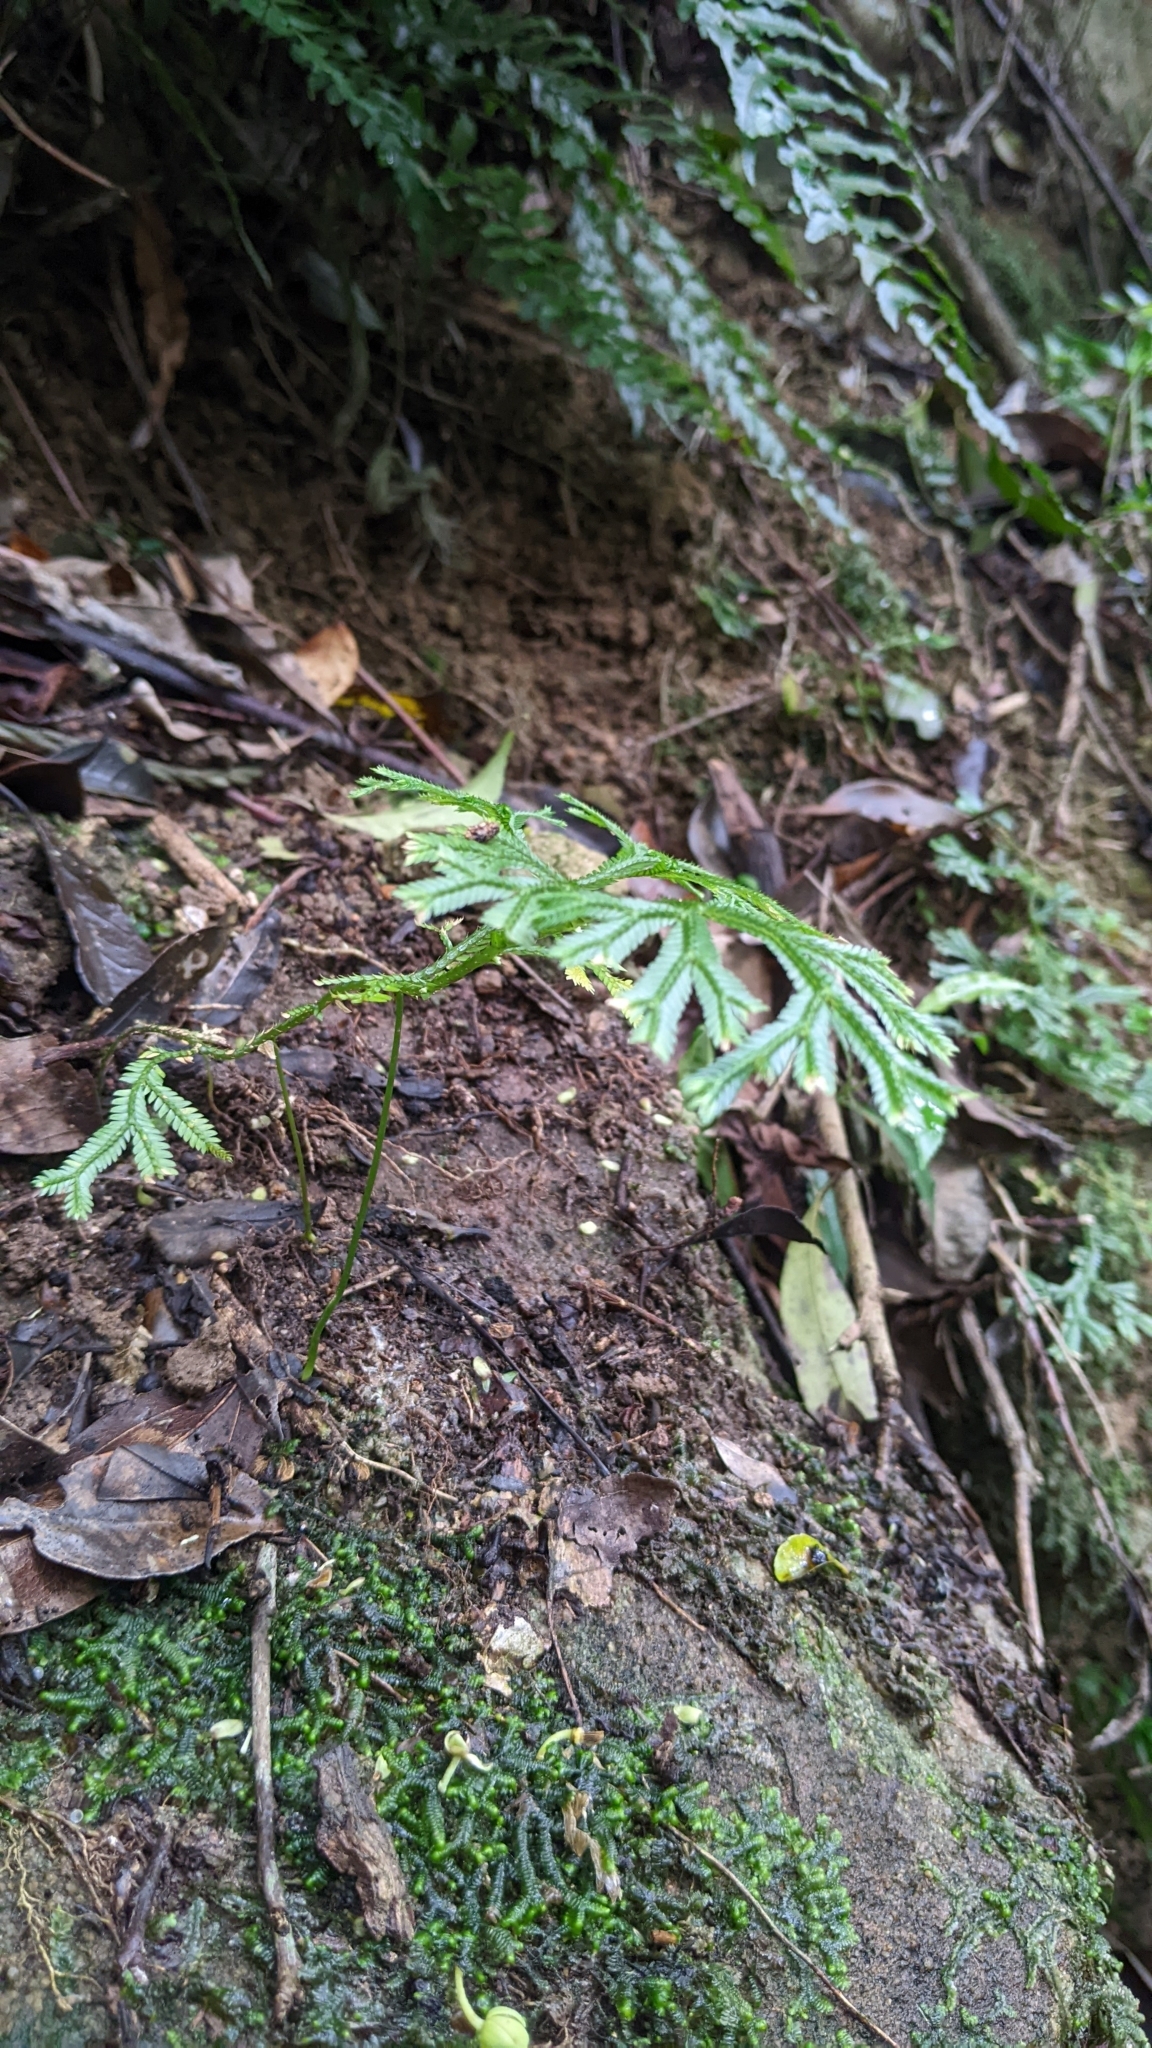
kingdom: Plantae
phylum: Tracheophyta
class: Lycopodiopsida
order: Selaginellales
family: Selaginellaceae
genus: Selaginella
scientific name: Selaginella doederleinii
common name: Greater selaginella
